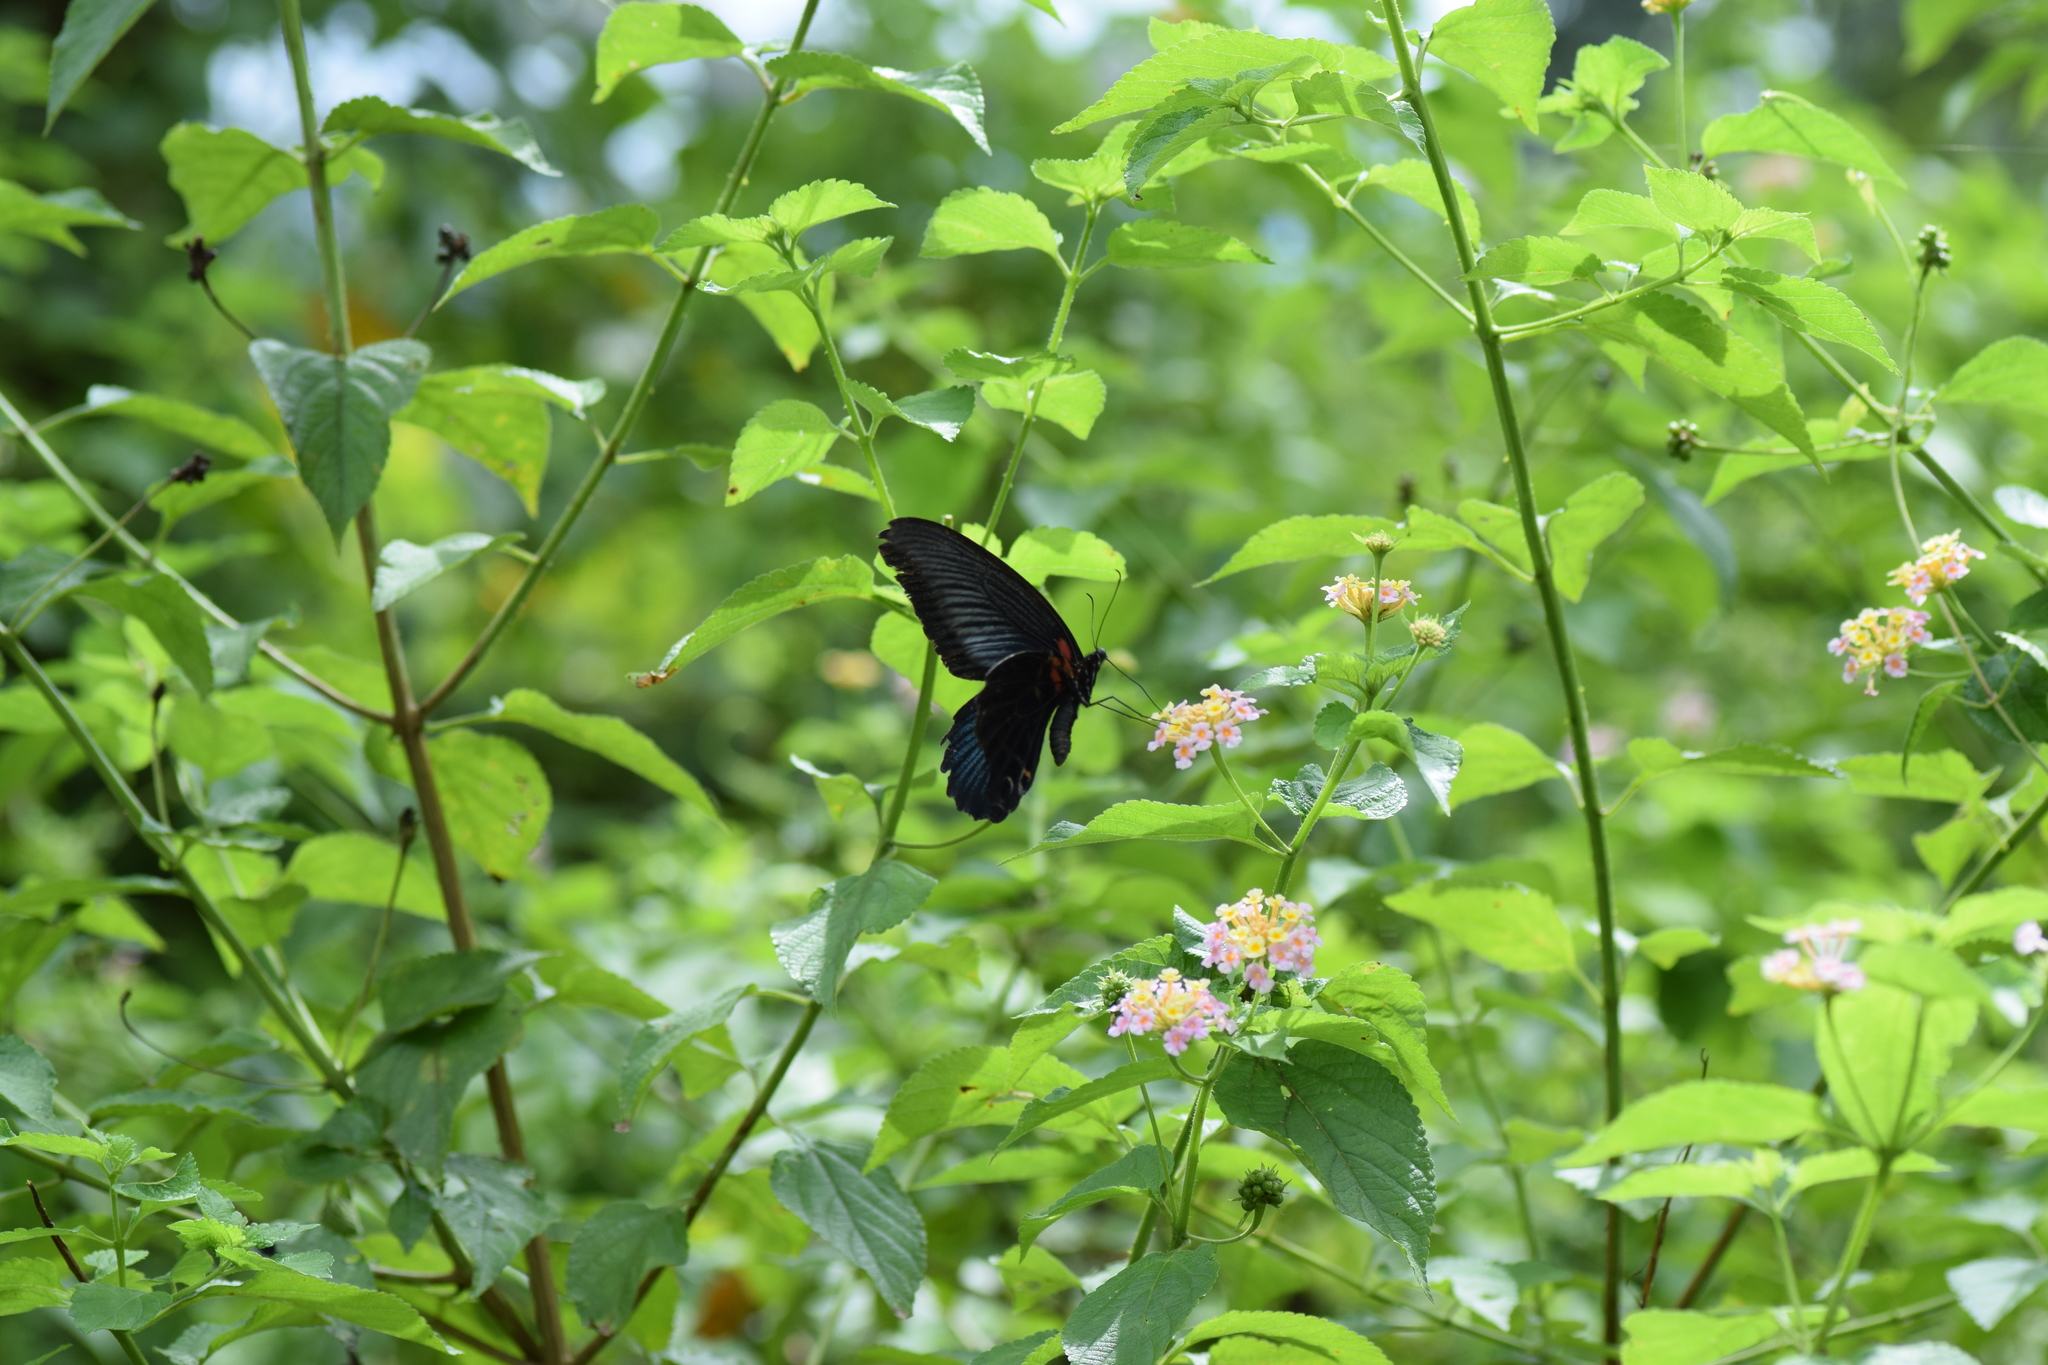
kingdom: Animalia
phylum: Arthropoda
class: Insecta
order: Lepidoptera
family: Papilionidae
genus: Papilio
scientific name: Papilio memnon
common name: Great mormon
